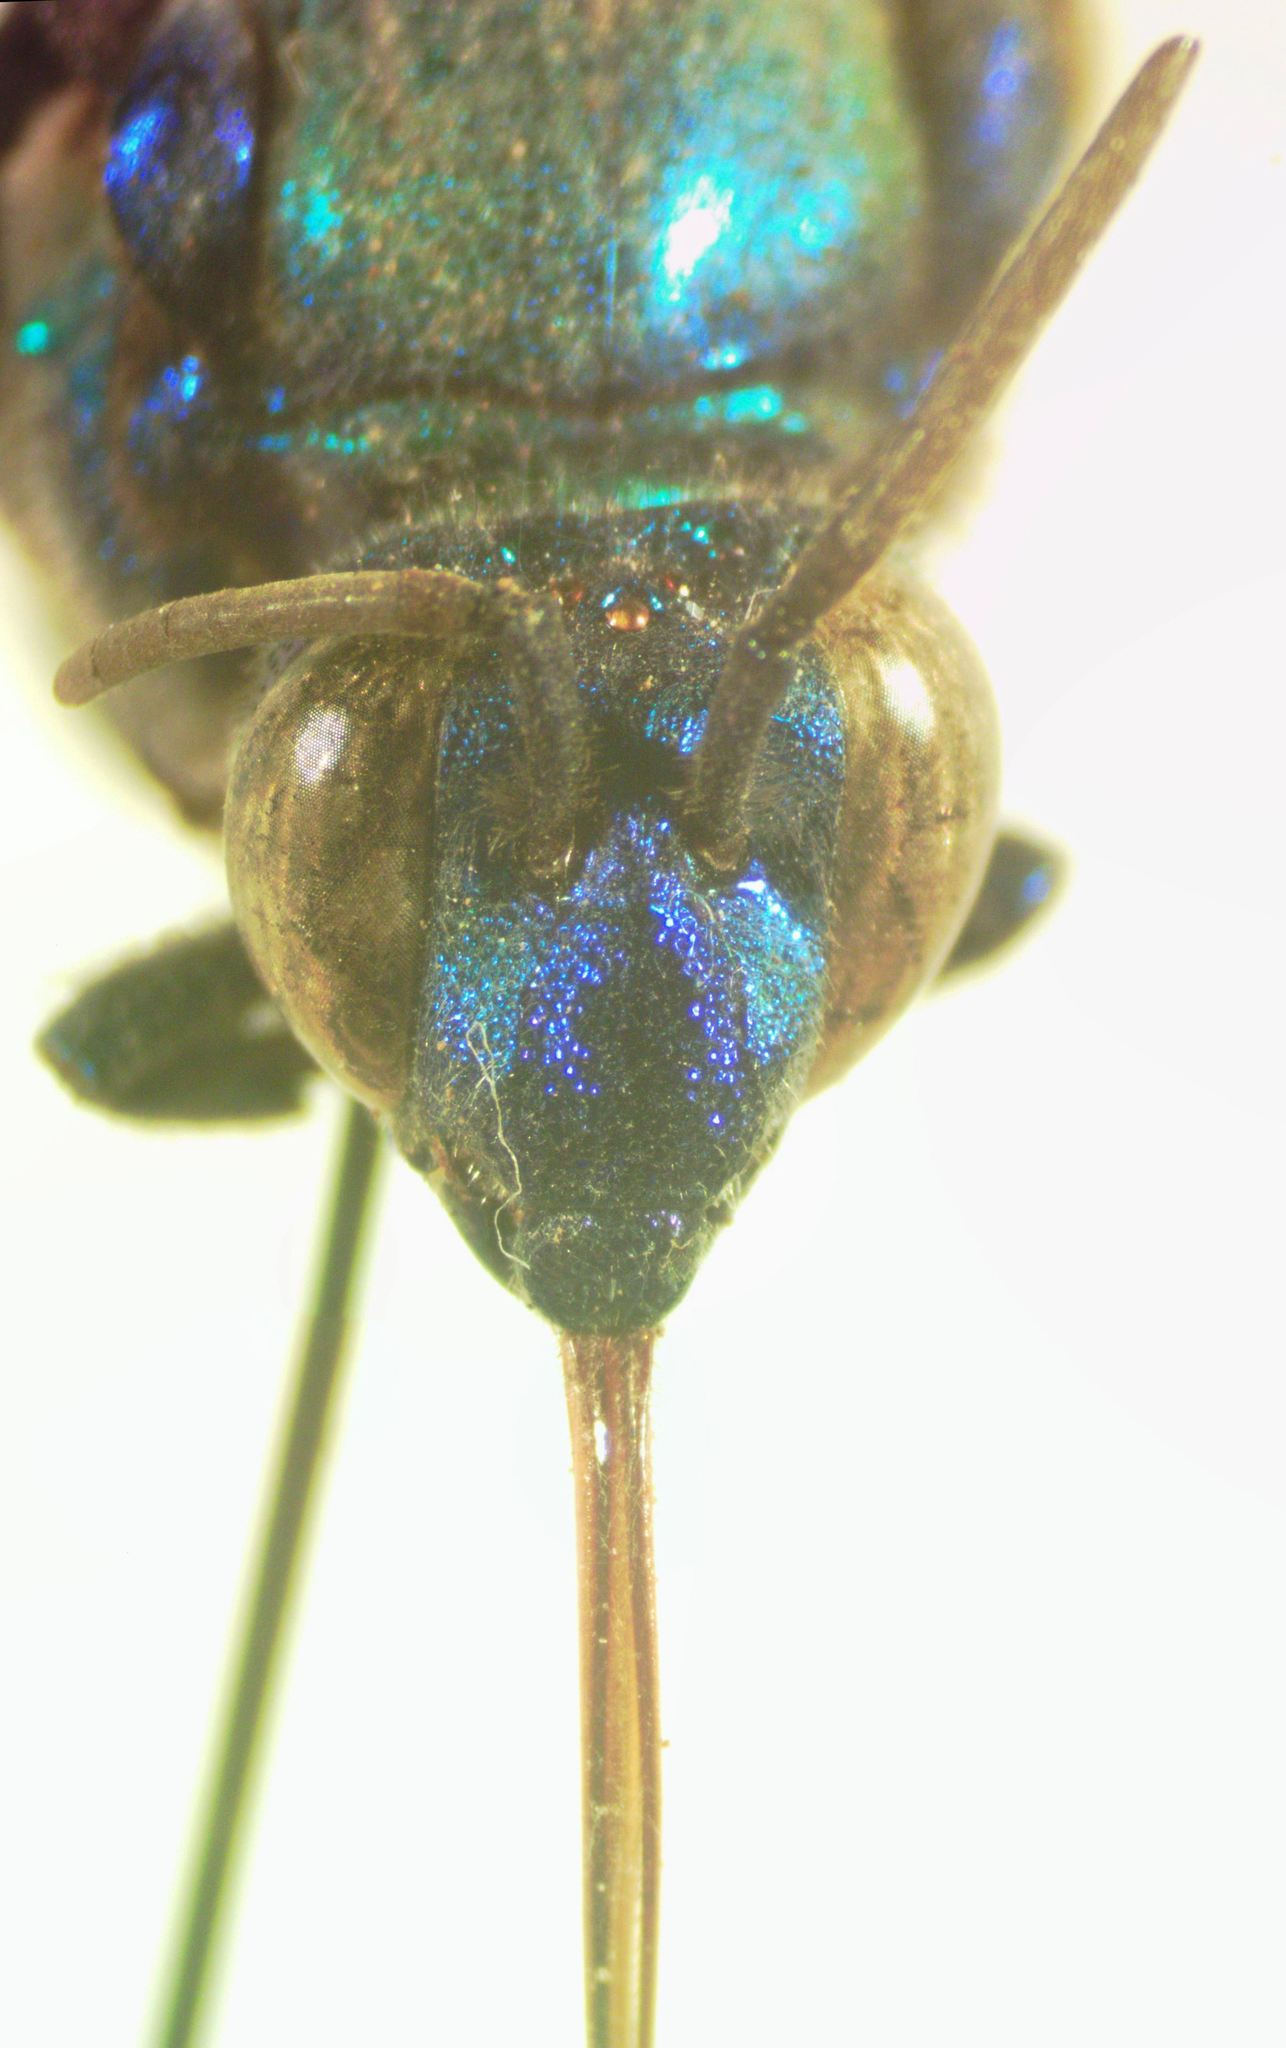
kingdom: Animalia
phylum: Arthropoda
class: Insecta
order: Hymenoptera
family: Apidae
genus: Exaerete
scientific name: Exaerete smaragdina
